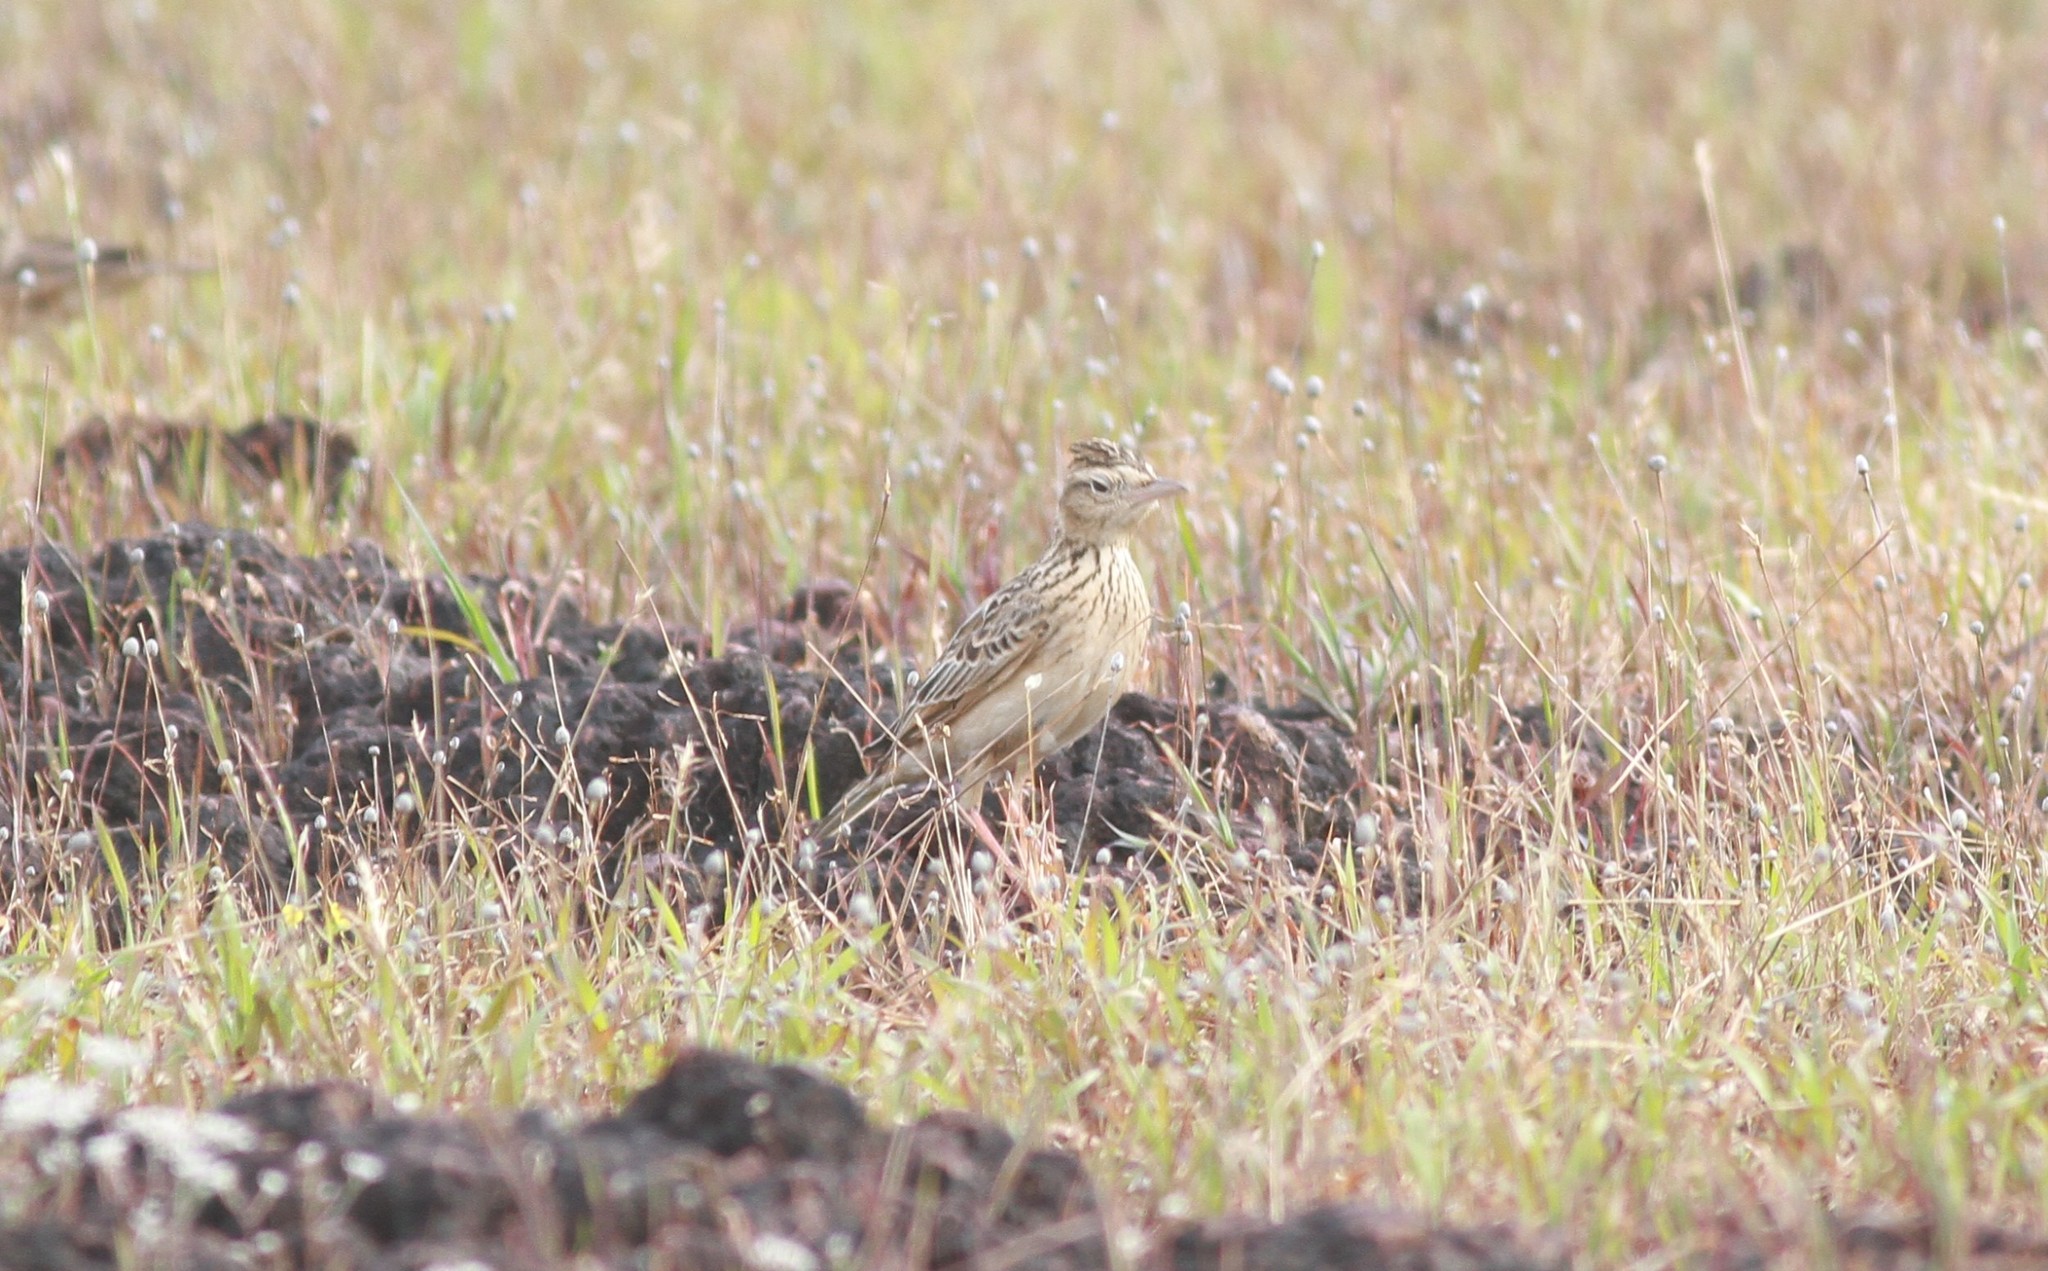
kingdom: Animalia
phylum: Chordata
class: Aves
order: Passeriformes
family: Alaudidae
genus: Alauda
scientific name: Alauda gulgula
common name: Oriental skylark
